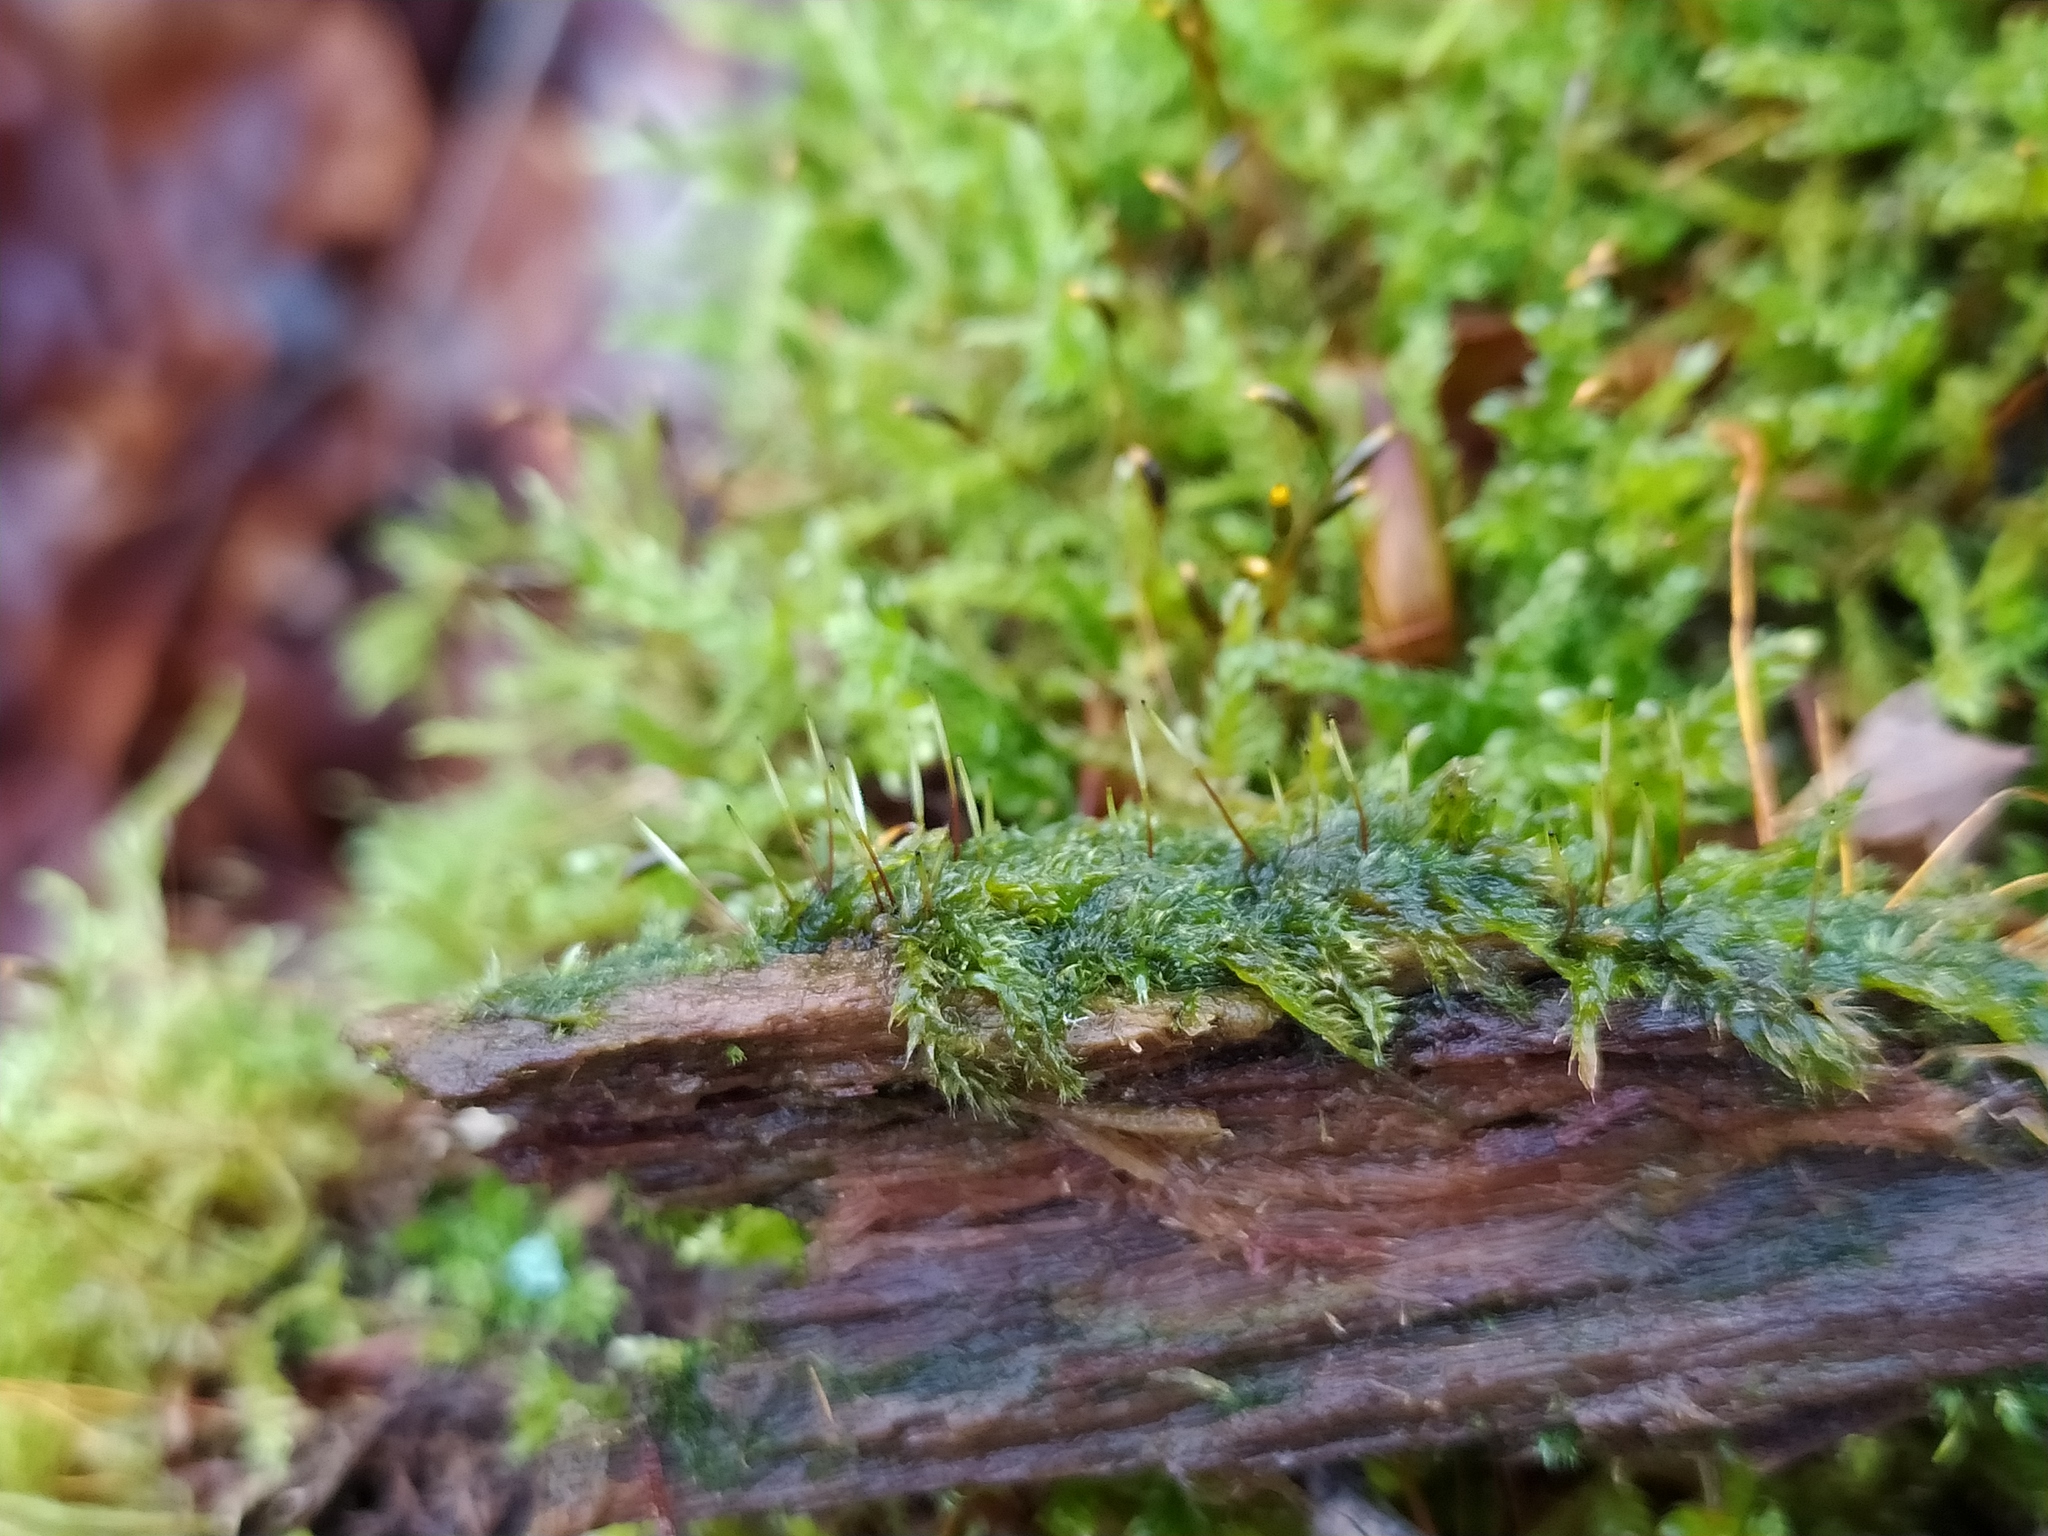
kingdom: Plantae
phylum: Bryophyta
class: Bryopsida
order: Hypnales
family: Plagiotheciaceae
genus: Herzogiella
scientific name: Herzogiella seligeri
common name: Silesian feather-moss
